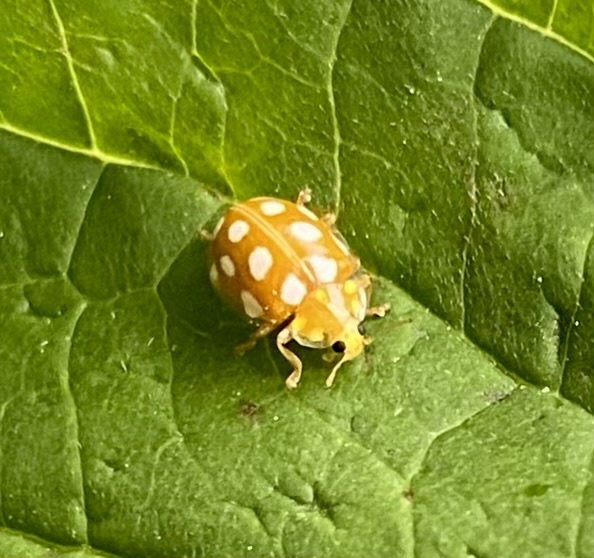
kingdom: Animalia
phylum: Arthropoda
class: Insecta
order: Coleoptera
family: Coccinellidae
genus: Halyzia
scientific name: Halyzia sedecimguttata
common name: Orange ladybird
